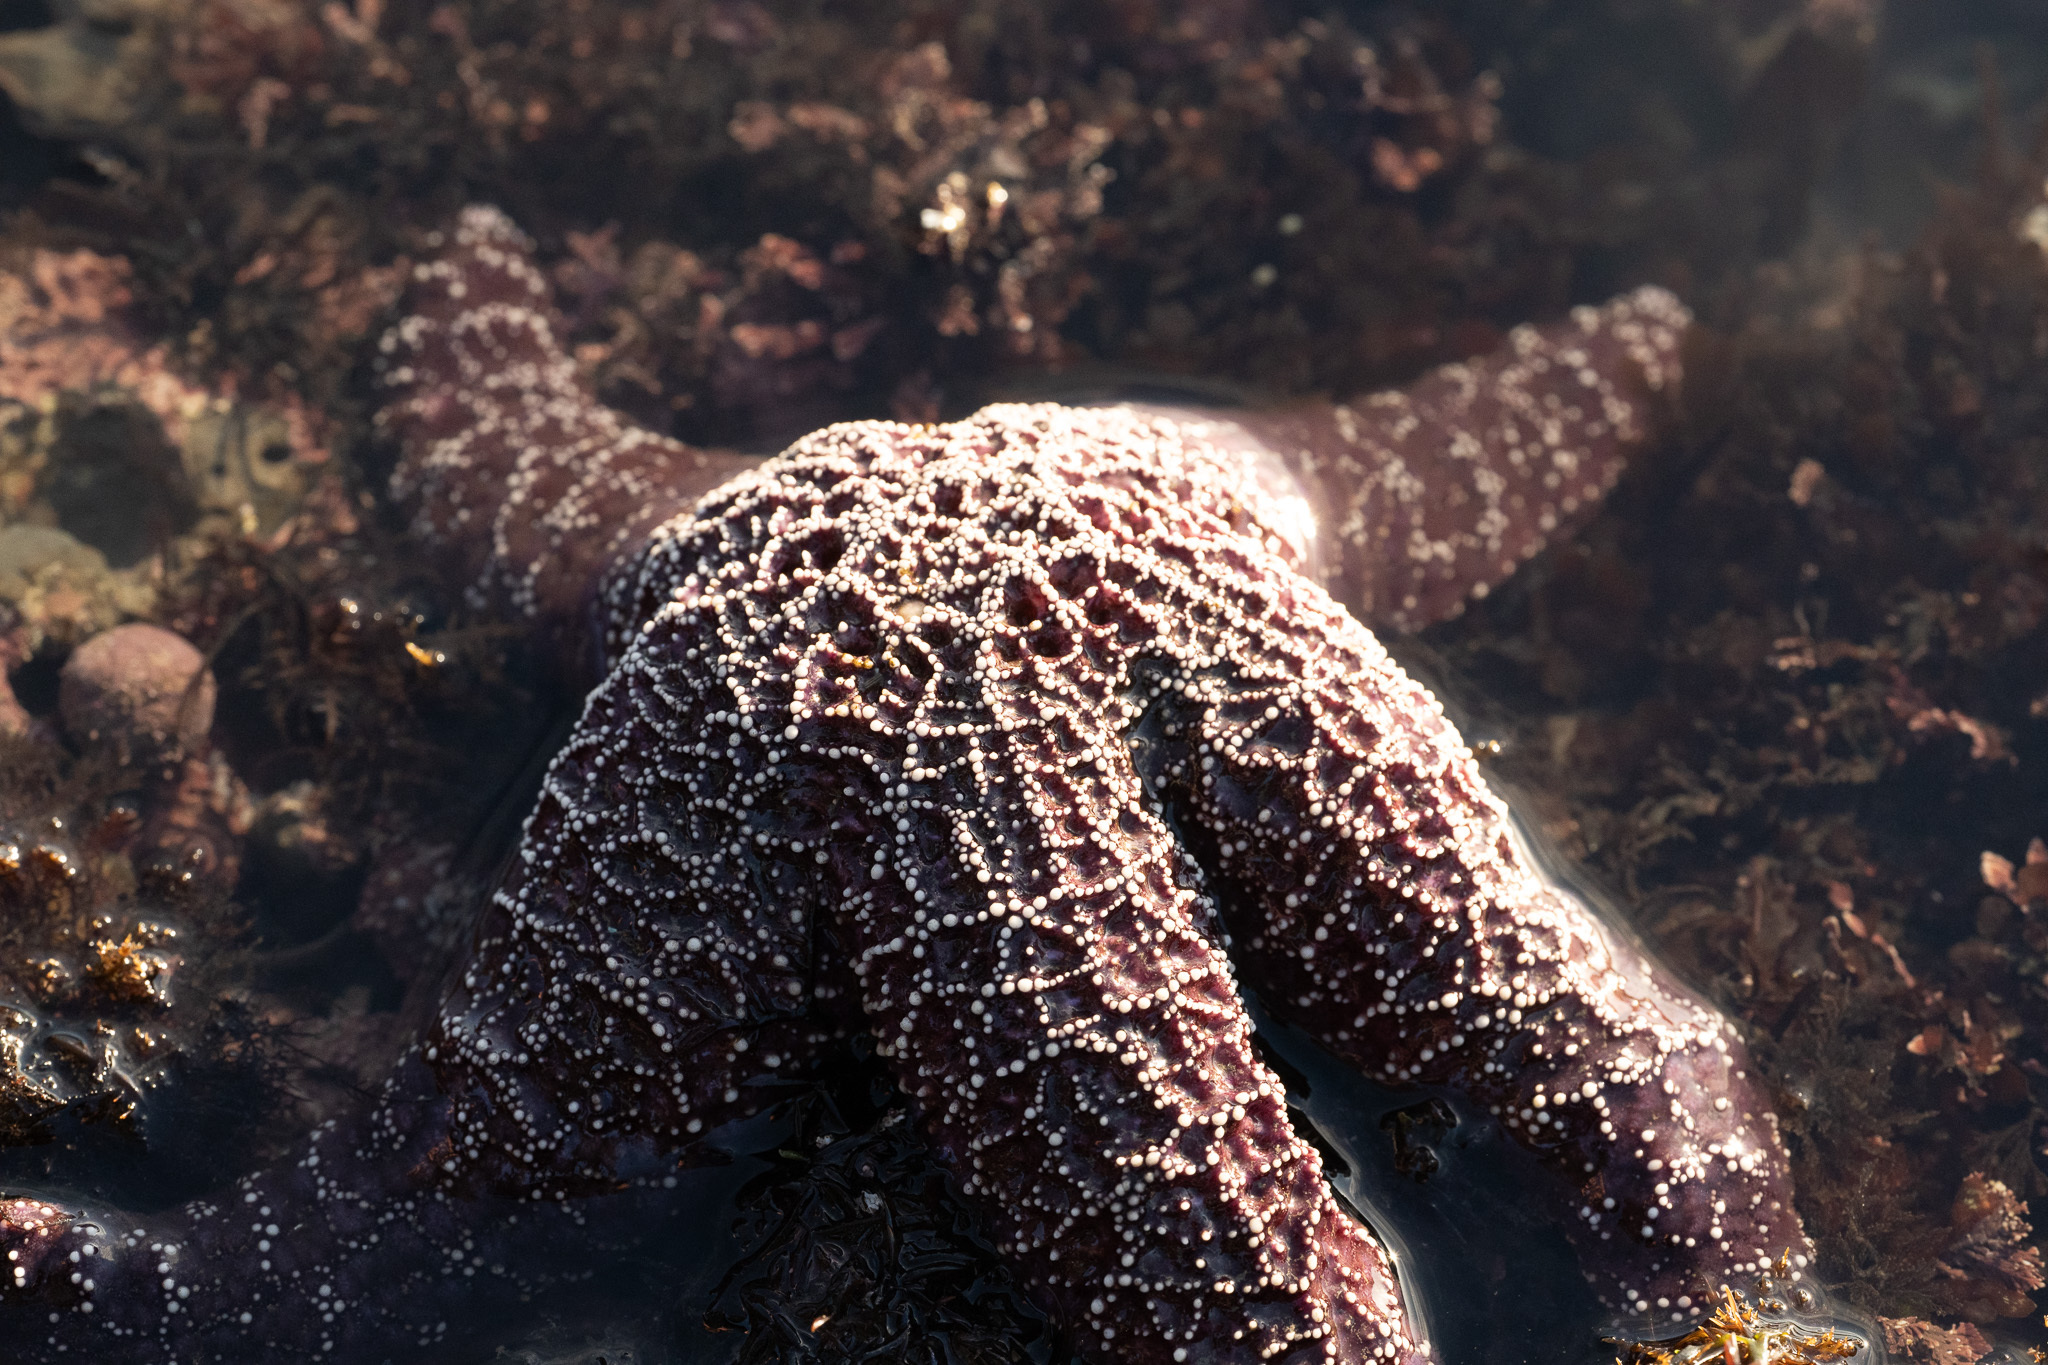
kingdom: Animalia
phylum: Echinodermata
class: Asteroidea
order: Forcipulatida
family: Asteriidae
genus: Pisaster
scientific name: Pisaster ochraceus
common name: Ochre stars
